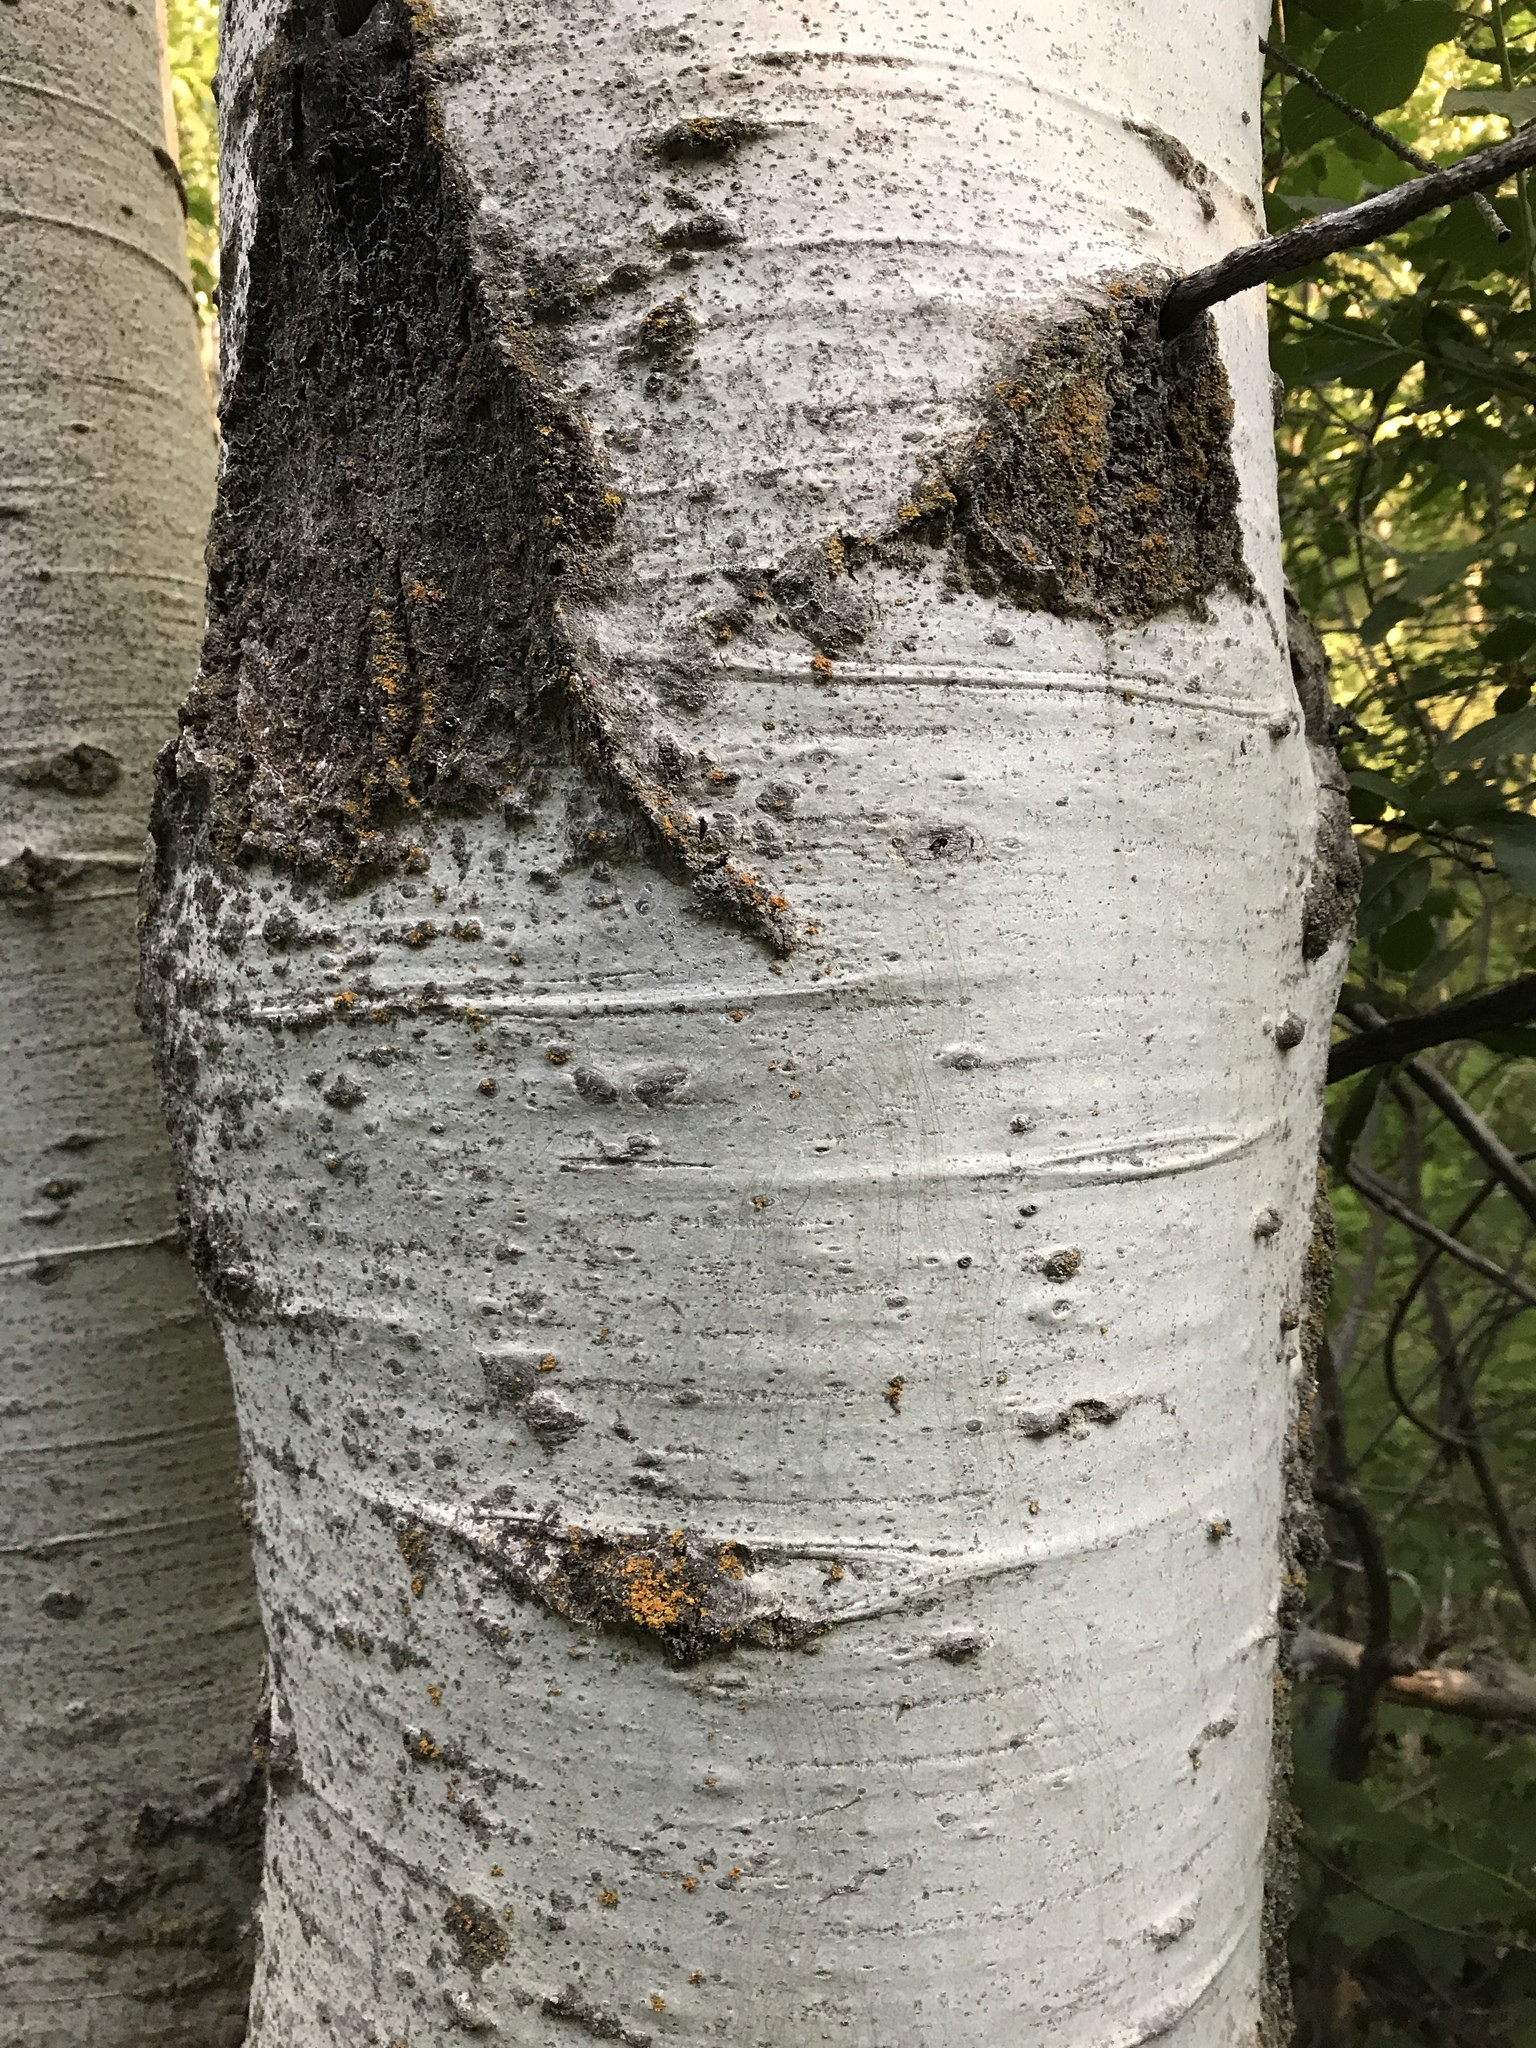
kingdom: Plantae
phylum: Tracheophyta
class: Magnoliopsida
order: Malpighiales
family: Salicaceae
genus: Populus
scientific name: Populus tremuloides
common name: Quaking aspen
